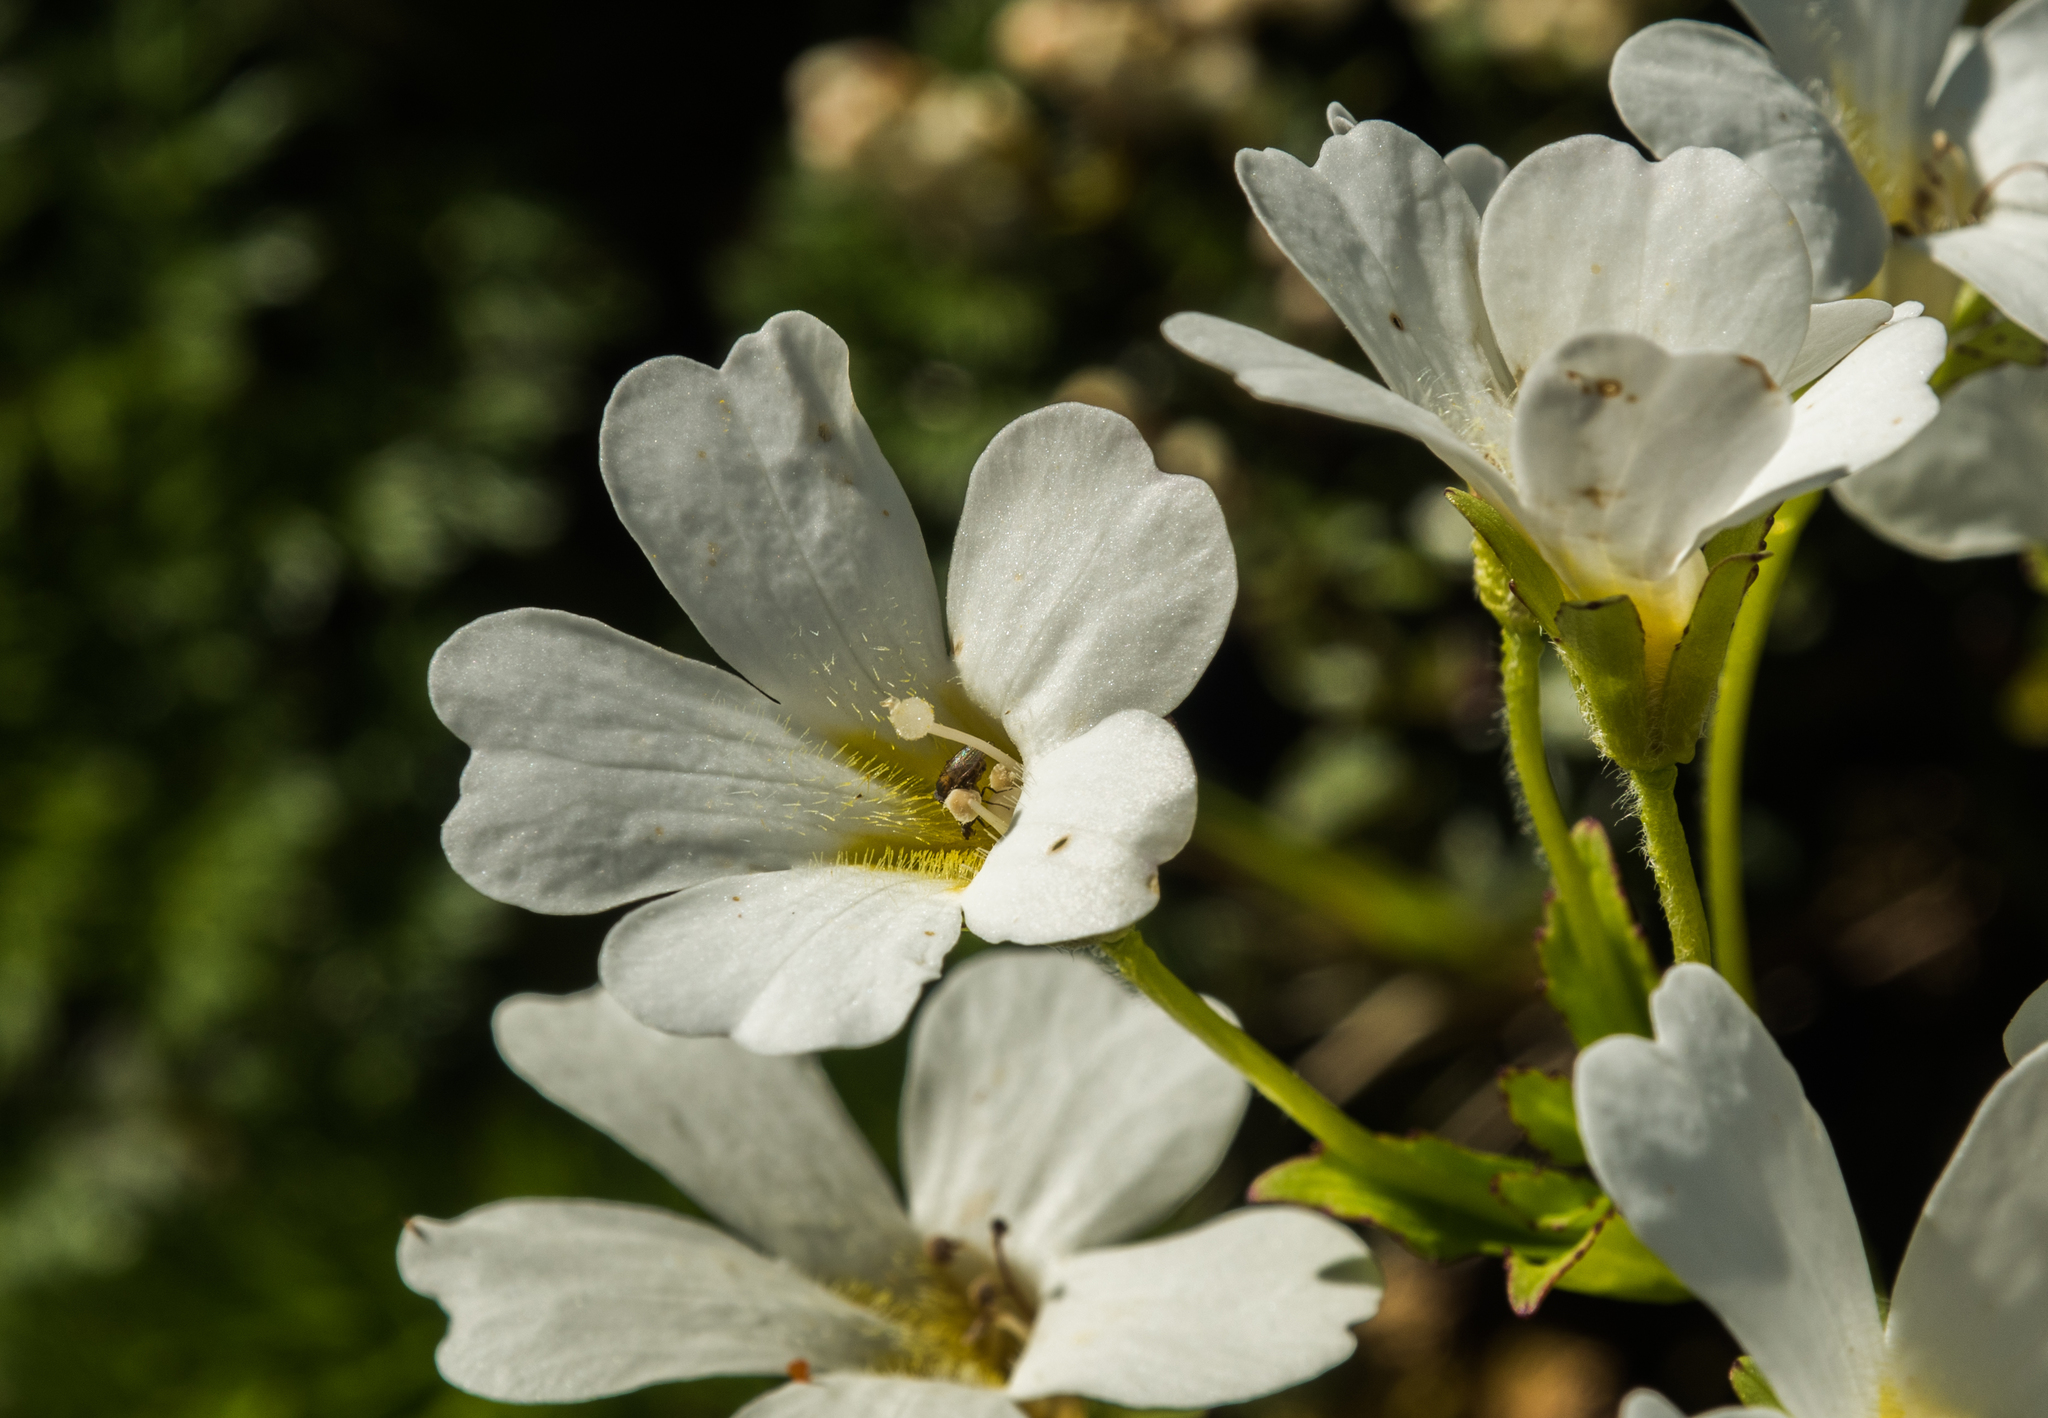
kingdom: Plantae
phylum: Tracheophyta
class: Magnoliopsida
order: Lamiales
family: Plantaginaceae
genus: Ourisia
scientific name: Ourisia calycina
